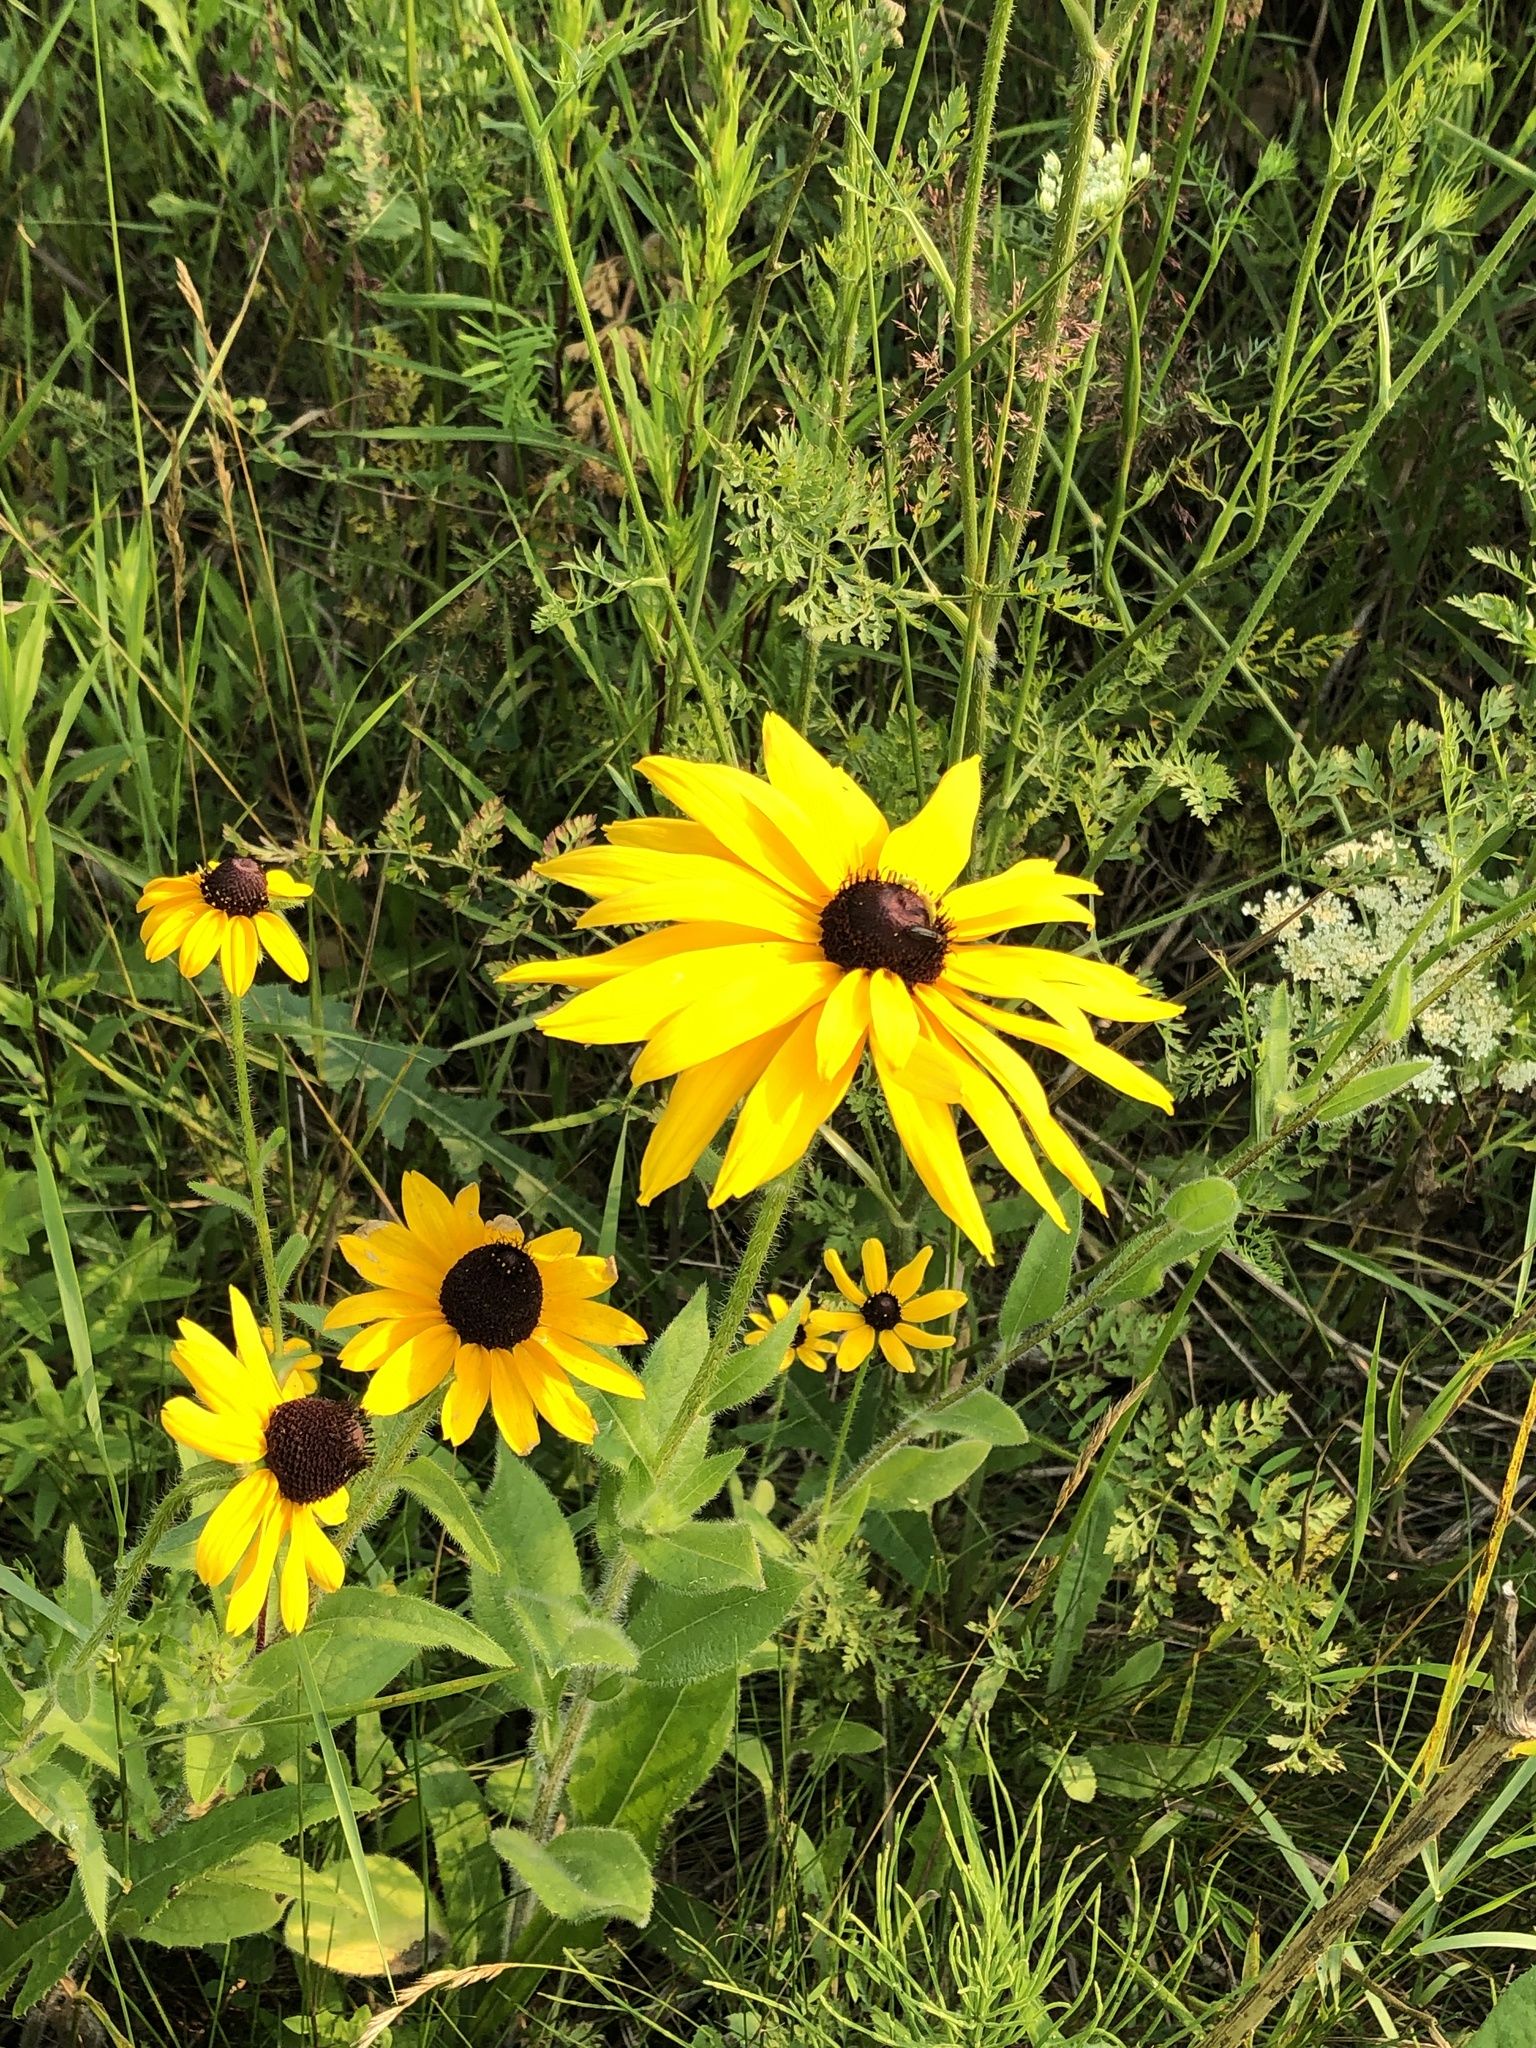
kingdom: Plantae
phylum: Tracheophyta
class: Magnoliopsida
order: Asterales
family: Asteraceae
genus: Rudbeckia
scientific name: Rudbeckia hirta
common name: Black-eyed-susan
